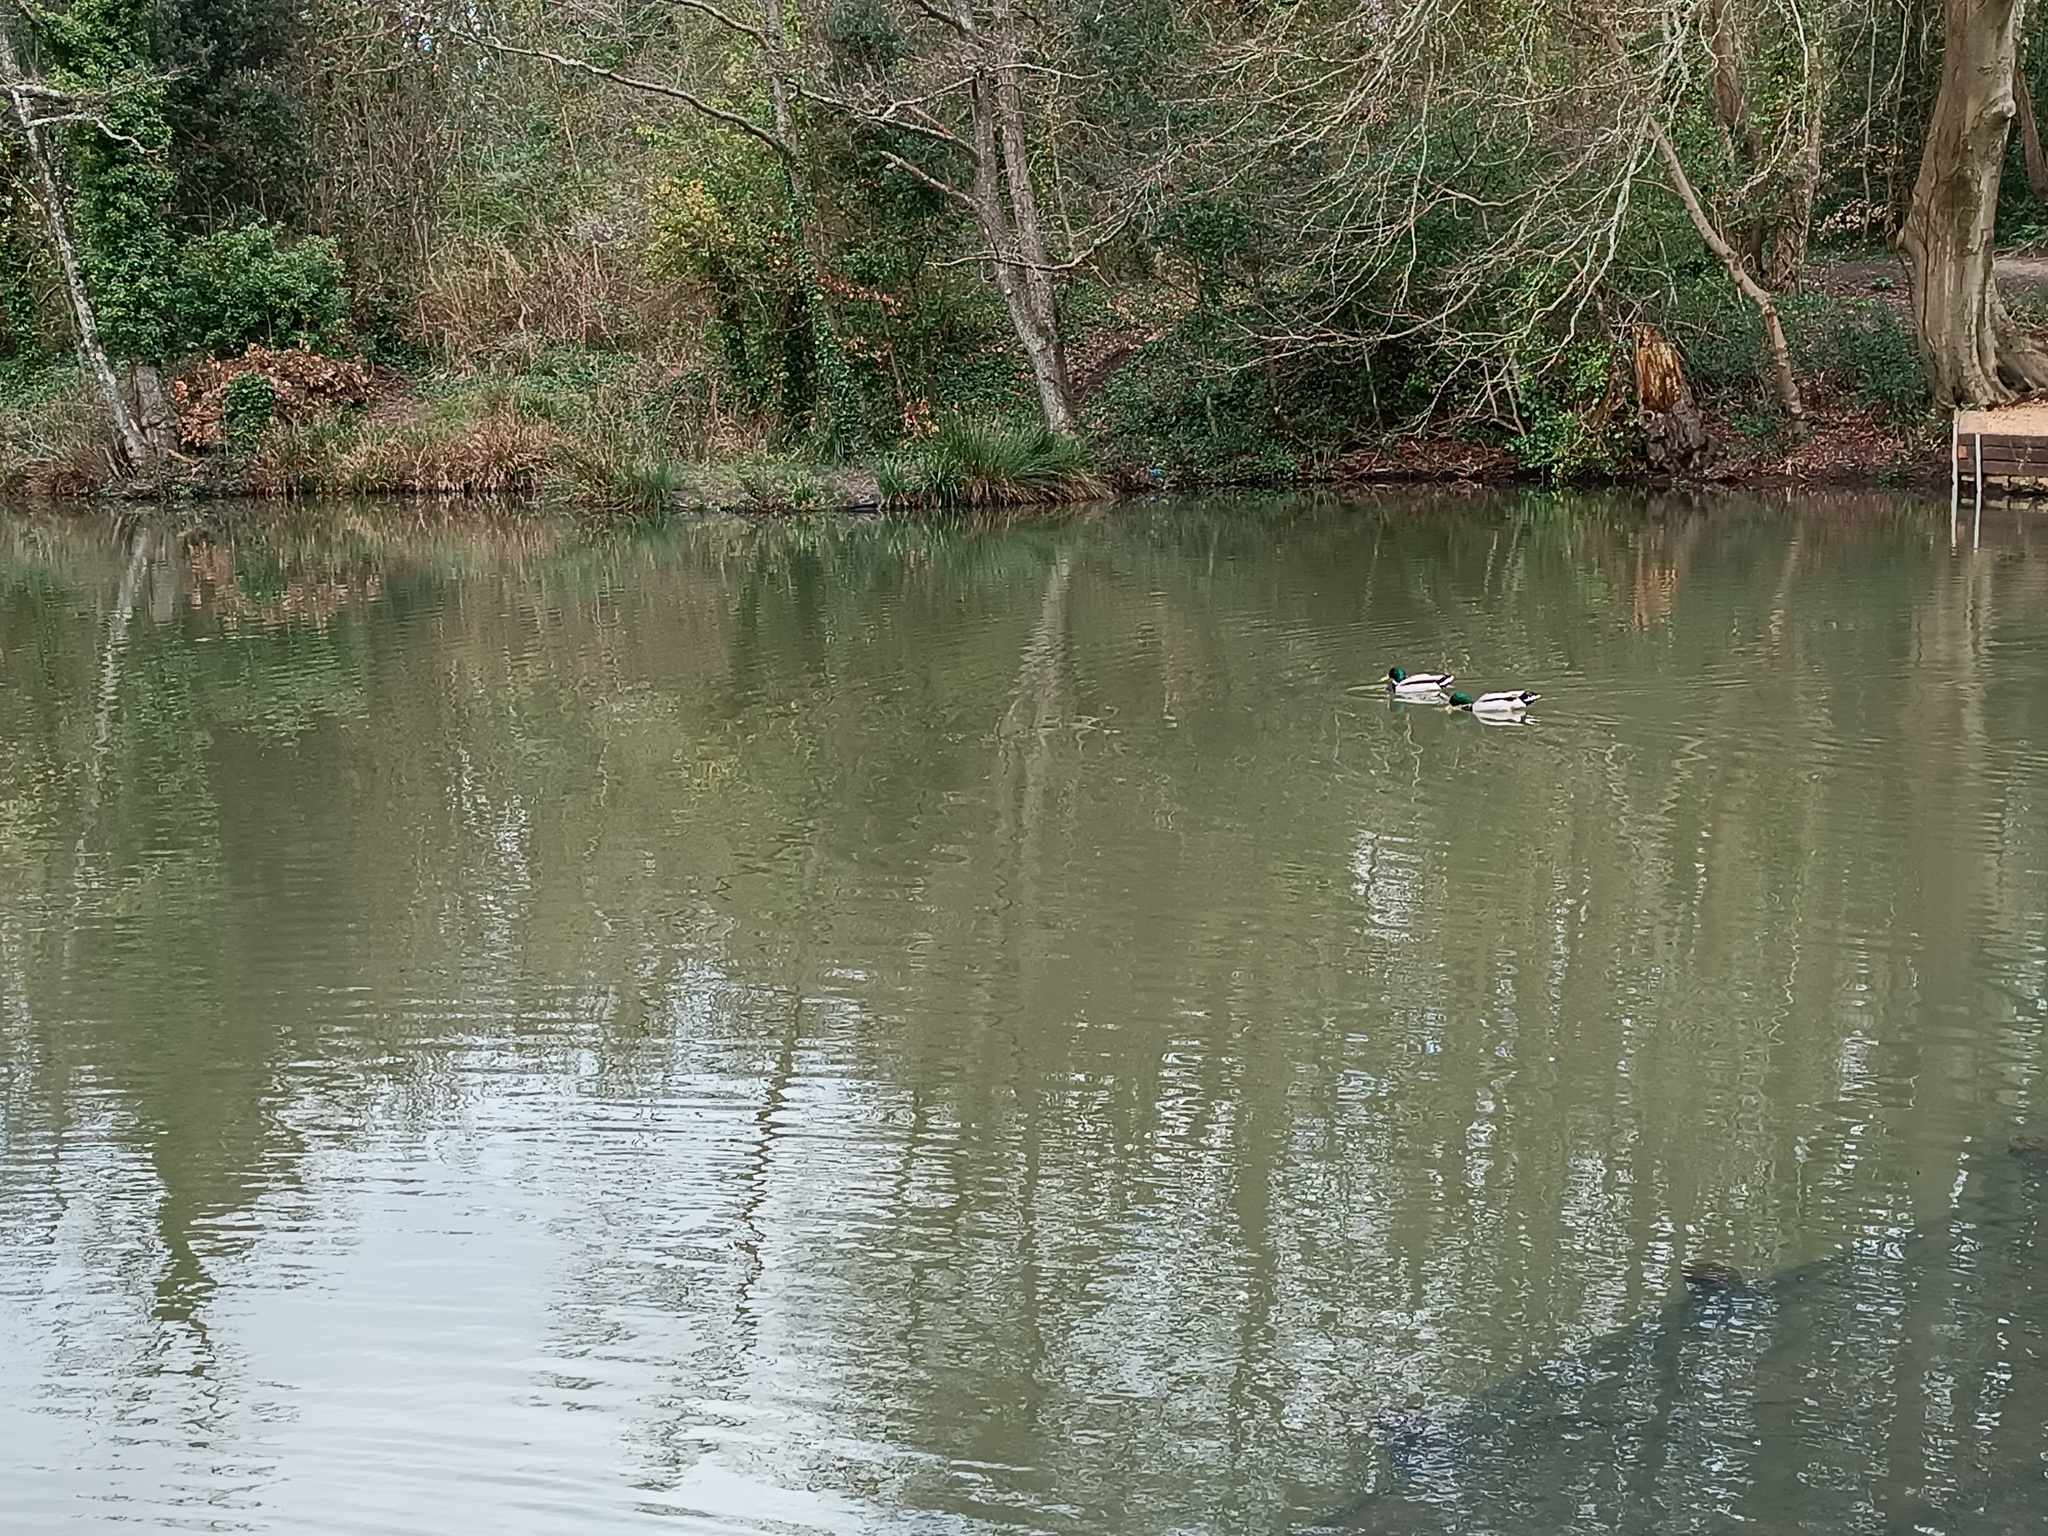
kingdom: Animalia
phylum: Chordata
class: Aves
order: Anseriformes
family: Anatidae
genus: Anas
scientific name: Anas platyrhynchos
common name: Mallard
